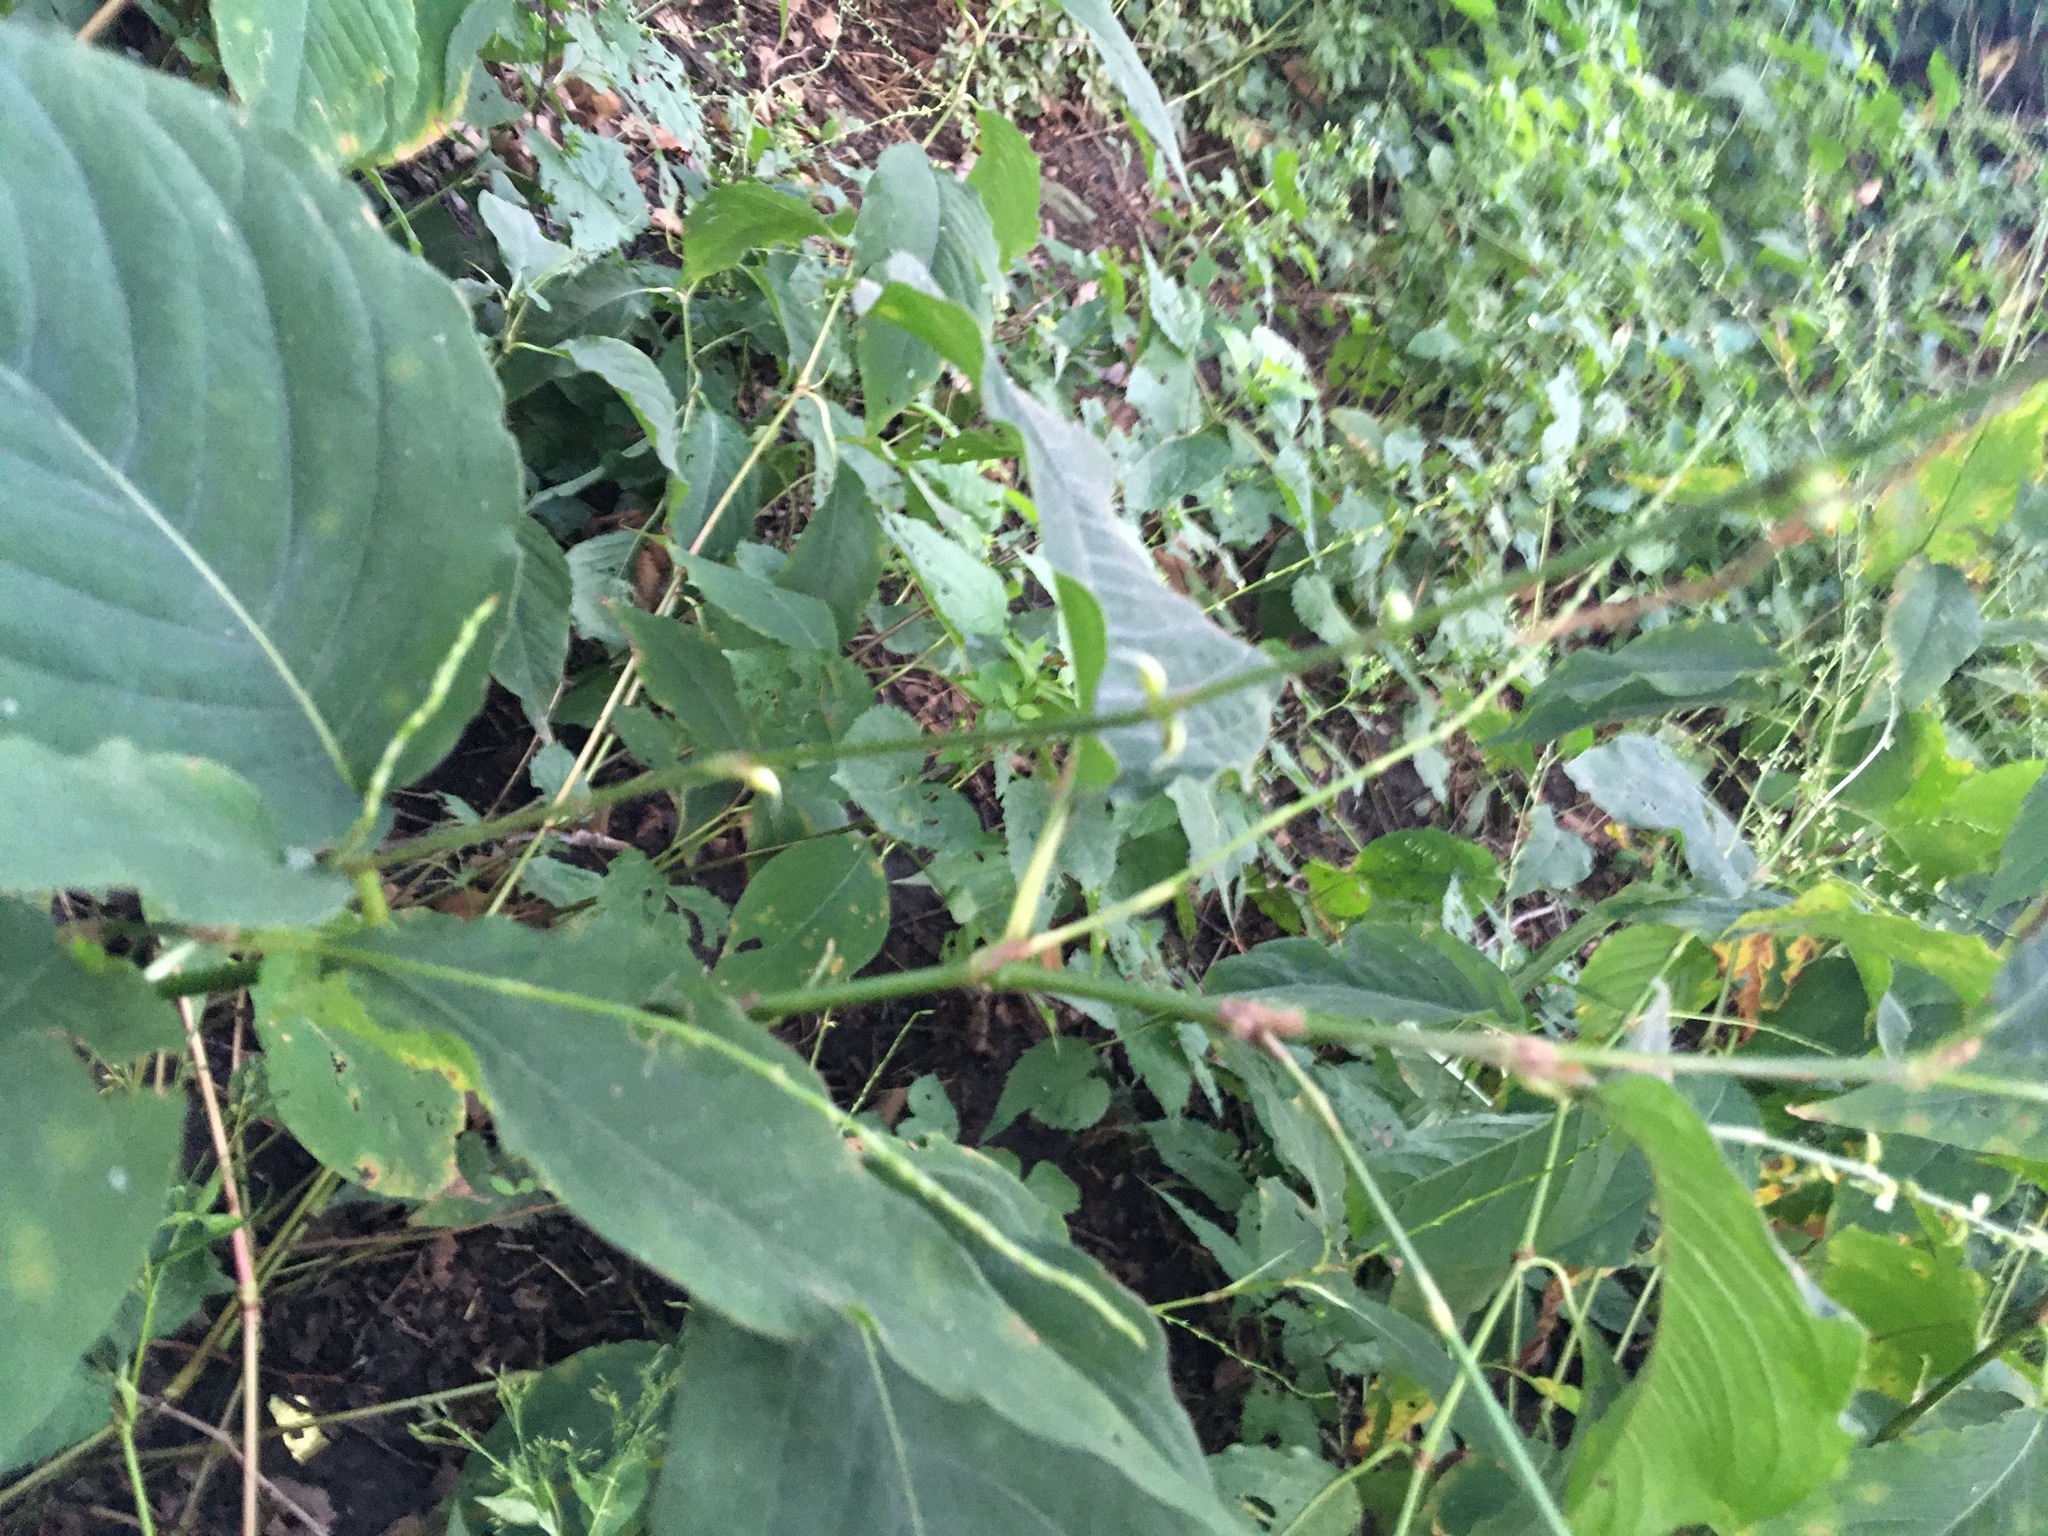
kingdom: Plantae
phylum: Tracheophyta
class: Magnoliopsida
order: Caryophyllales
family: Polygonaceae
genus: Persicaria
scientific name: Persicaria virginiana
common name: Jumpseed
